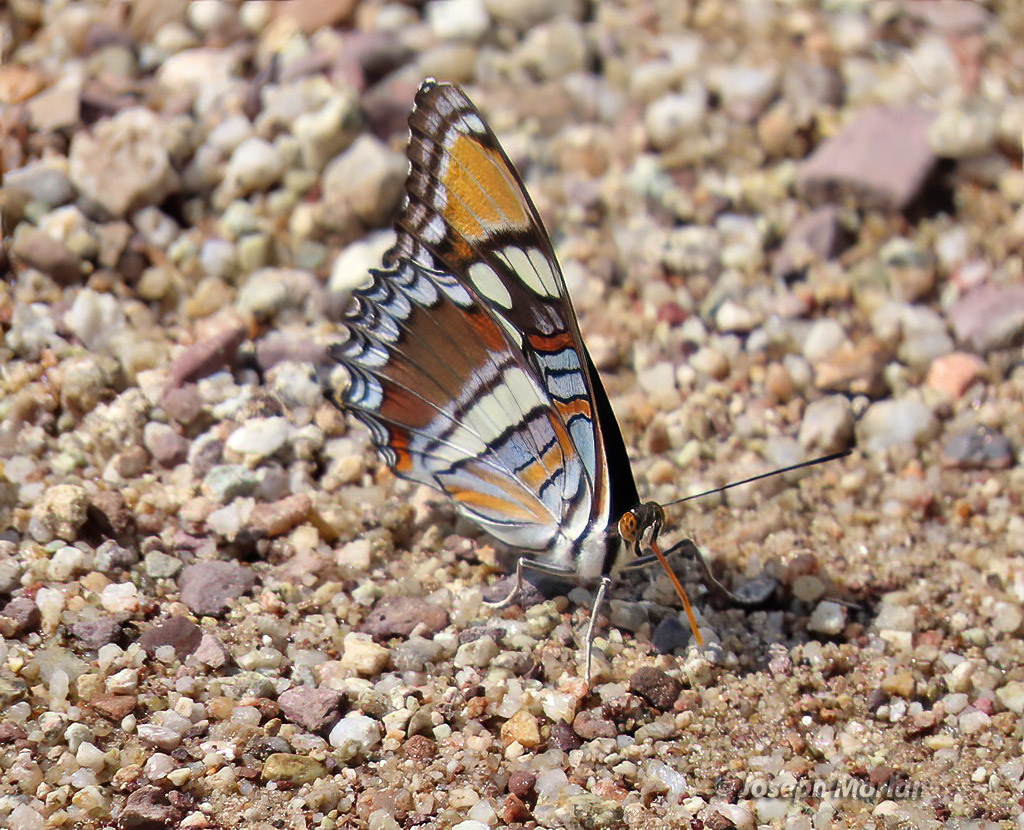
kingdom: Animalia
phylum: Arthropoda
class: Insecta
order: Lepidoptera
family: Nymphalidae
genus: Limenitis
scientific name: Limenitis bredowii
